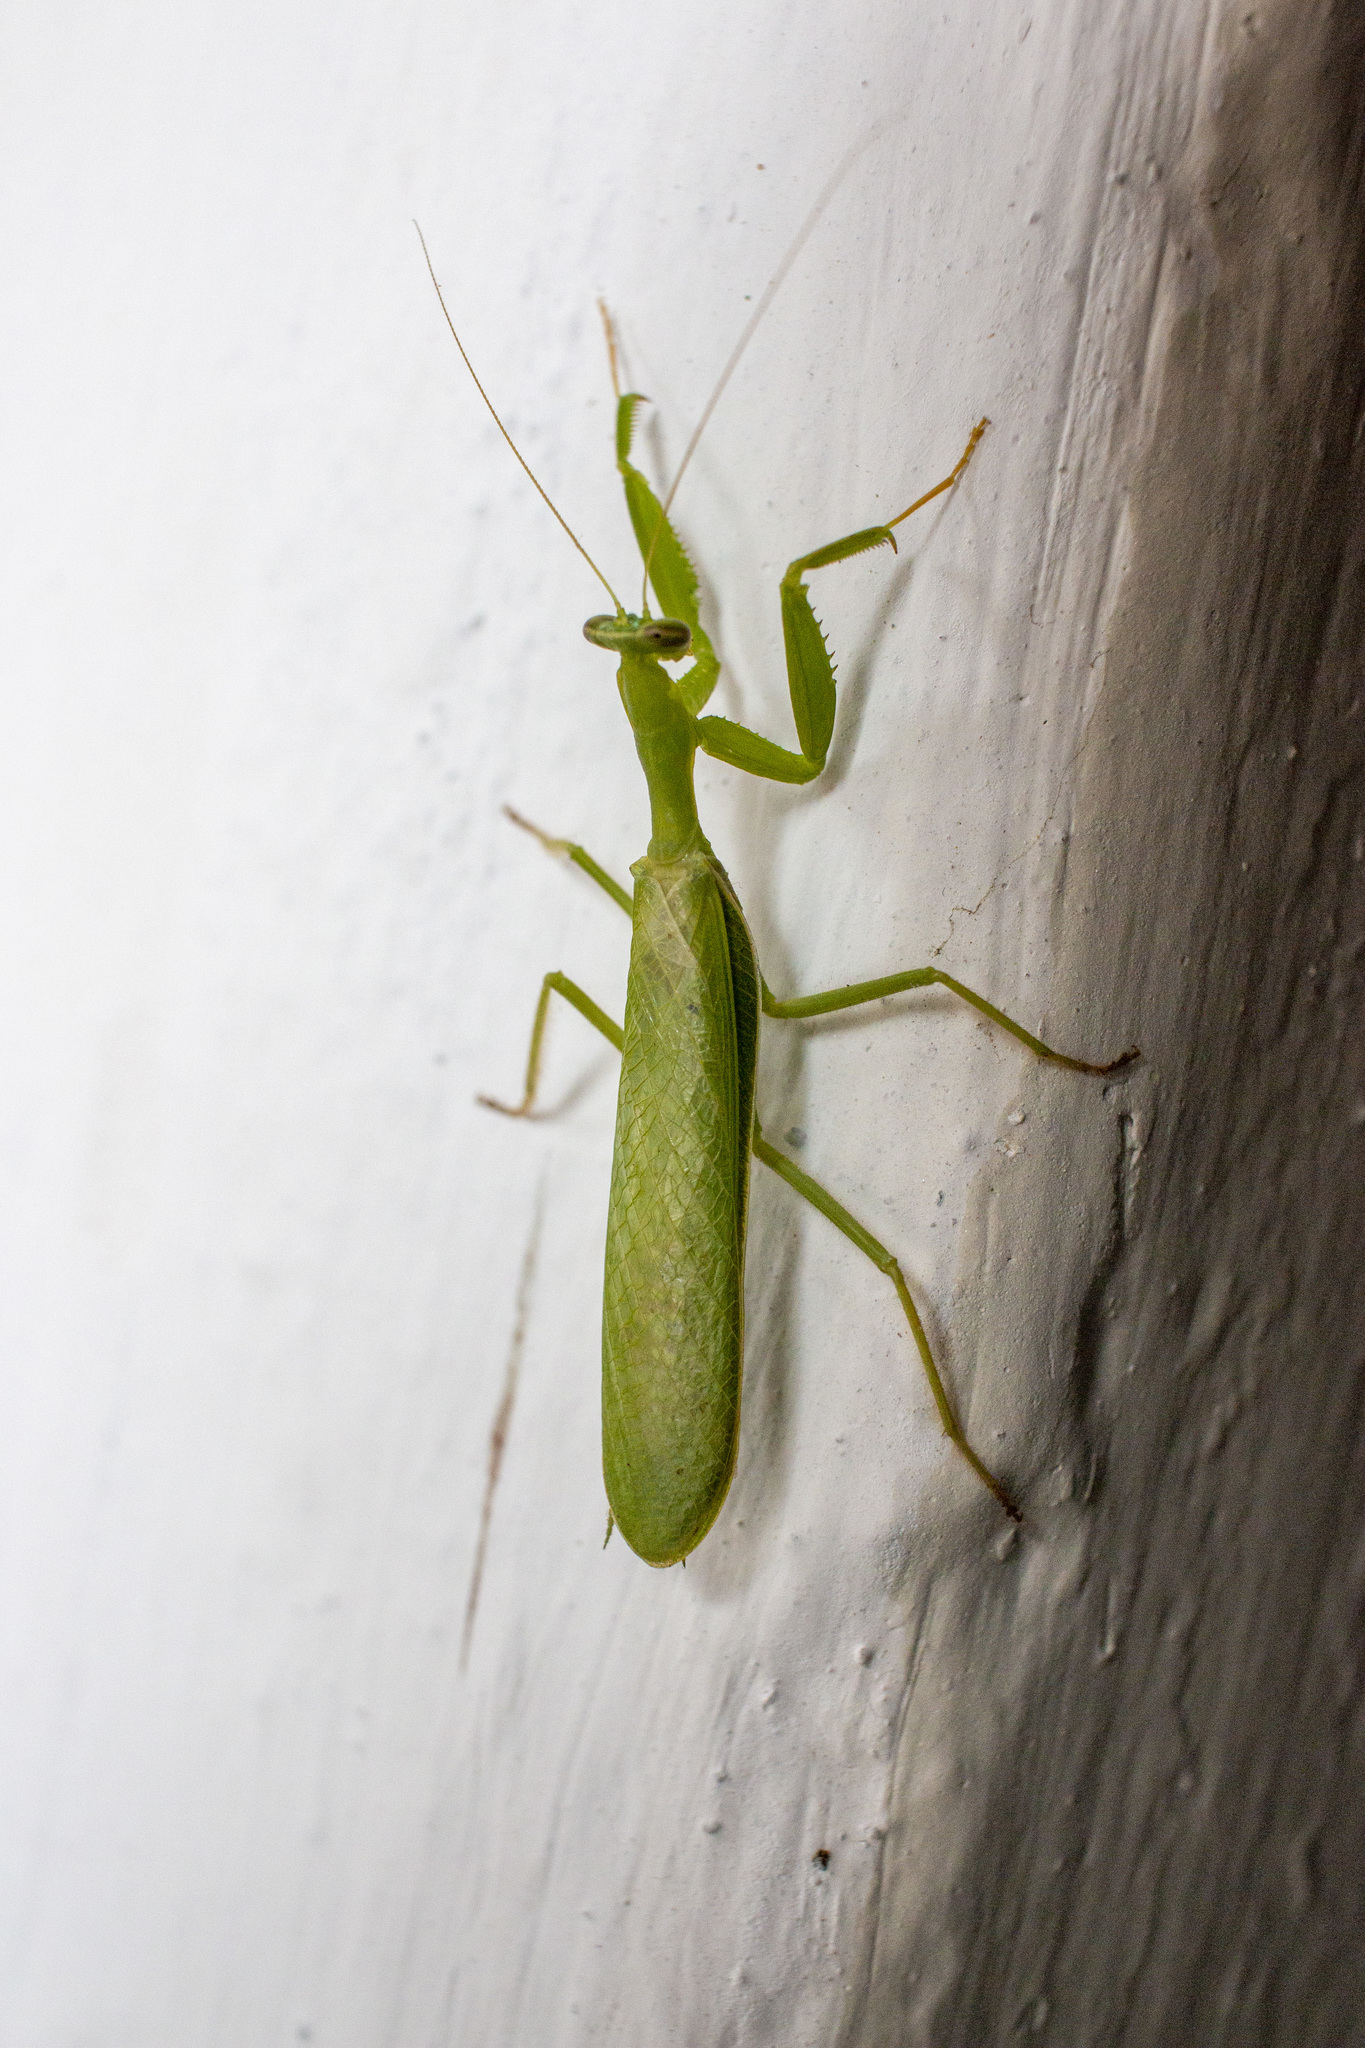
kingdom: Animalia
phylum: Arthropoda
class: Insecta
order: Mantodea
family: Photinaidae
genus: Photiomantis
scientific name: Photiomantis planicephala
